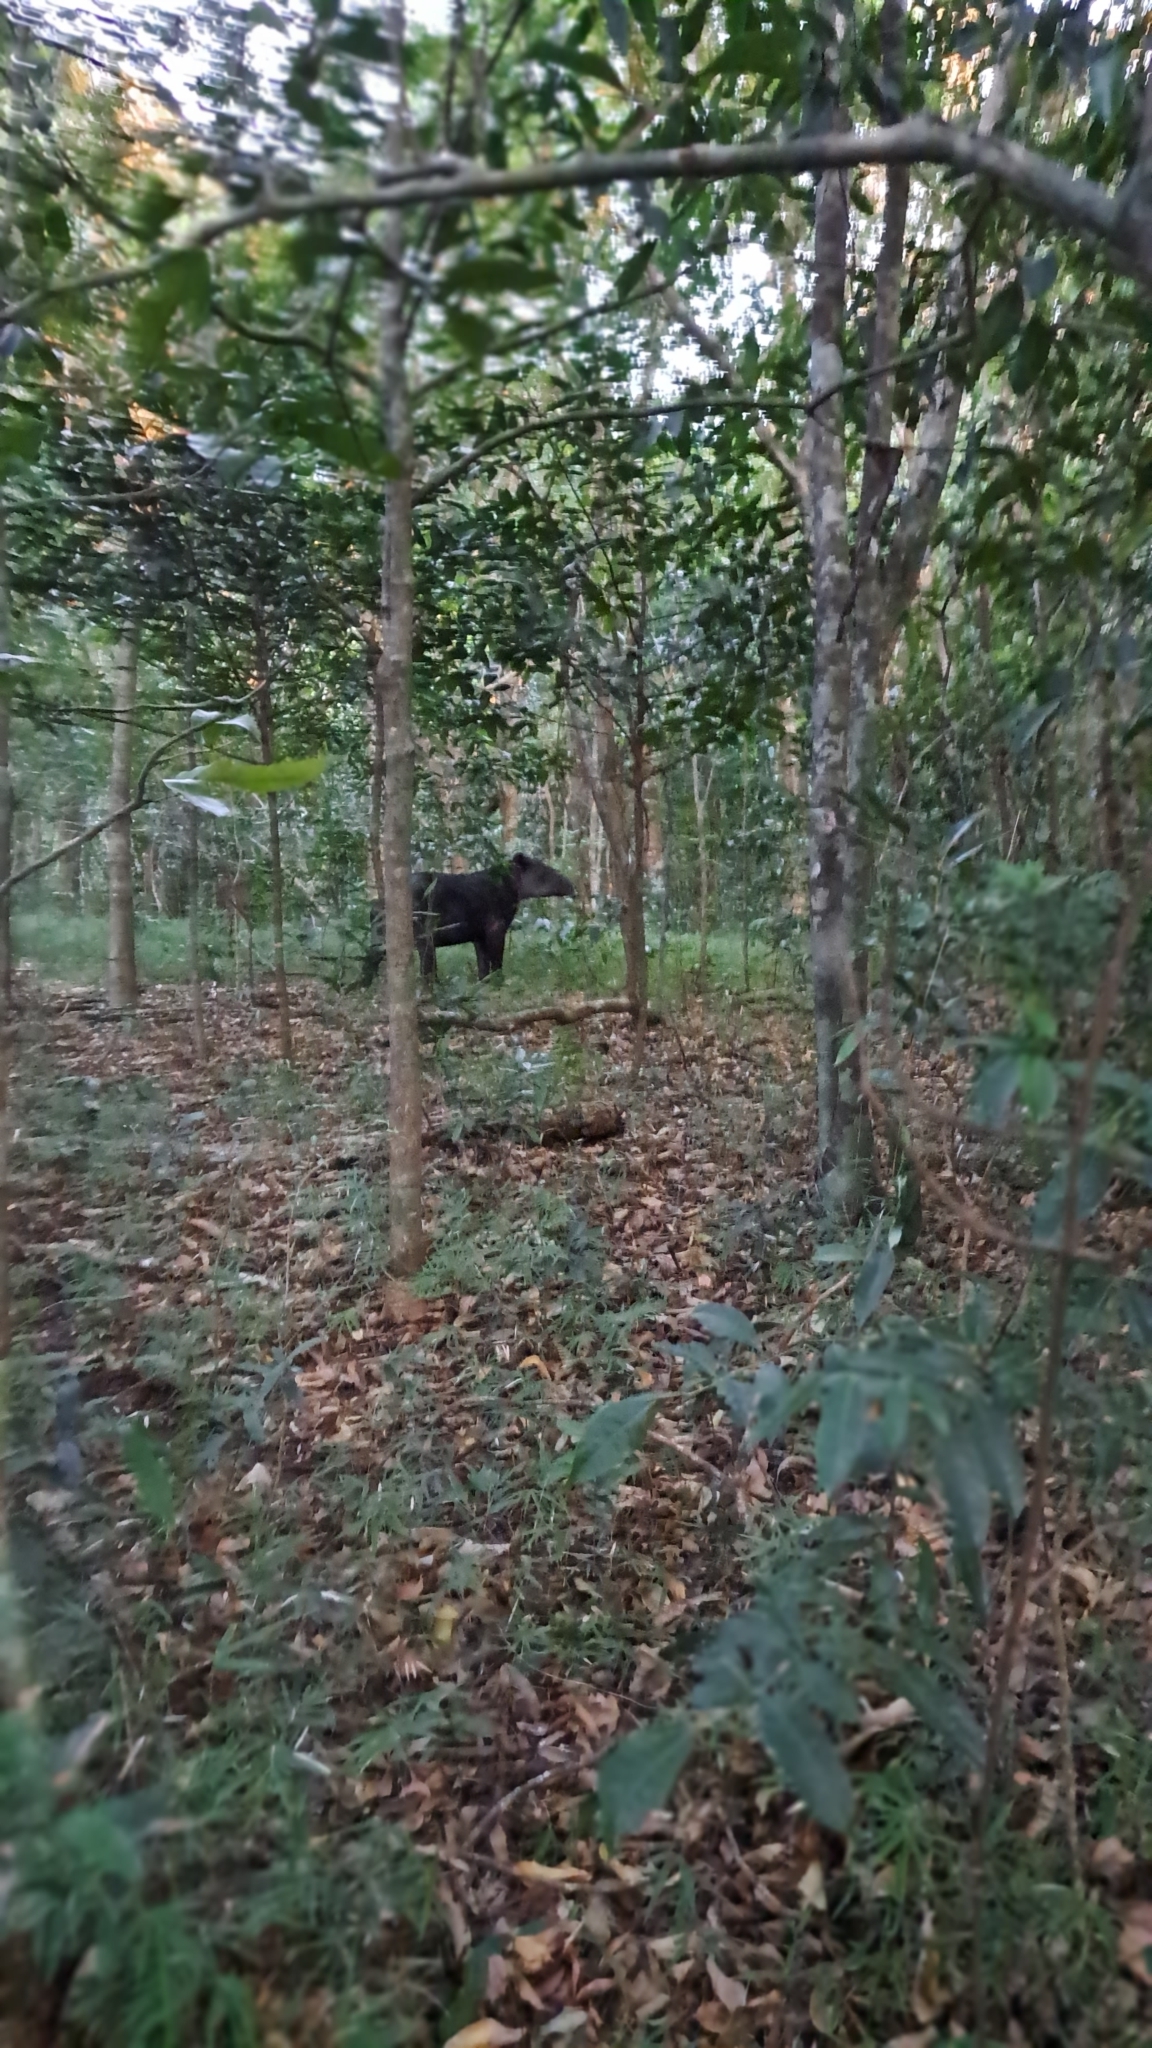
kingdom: Animalia
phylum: Chordata
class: Mammalia
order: Perissodactyla
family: Tapiridae
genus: Tapirella
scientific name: Tapirella bairdii
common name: Baird's tapir
